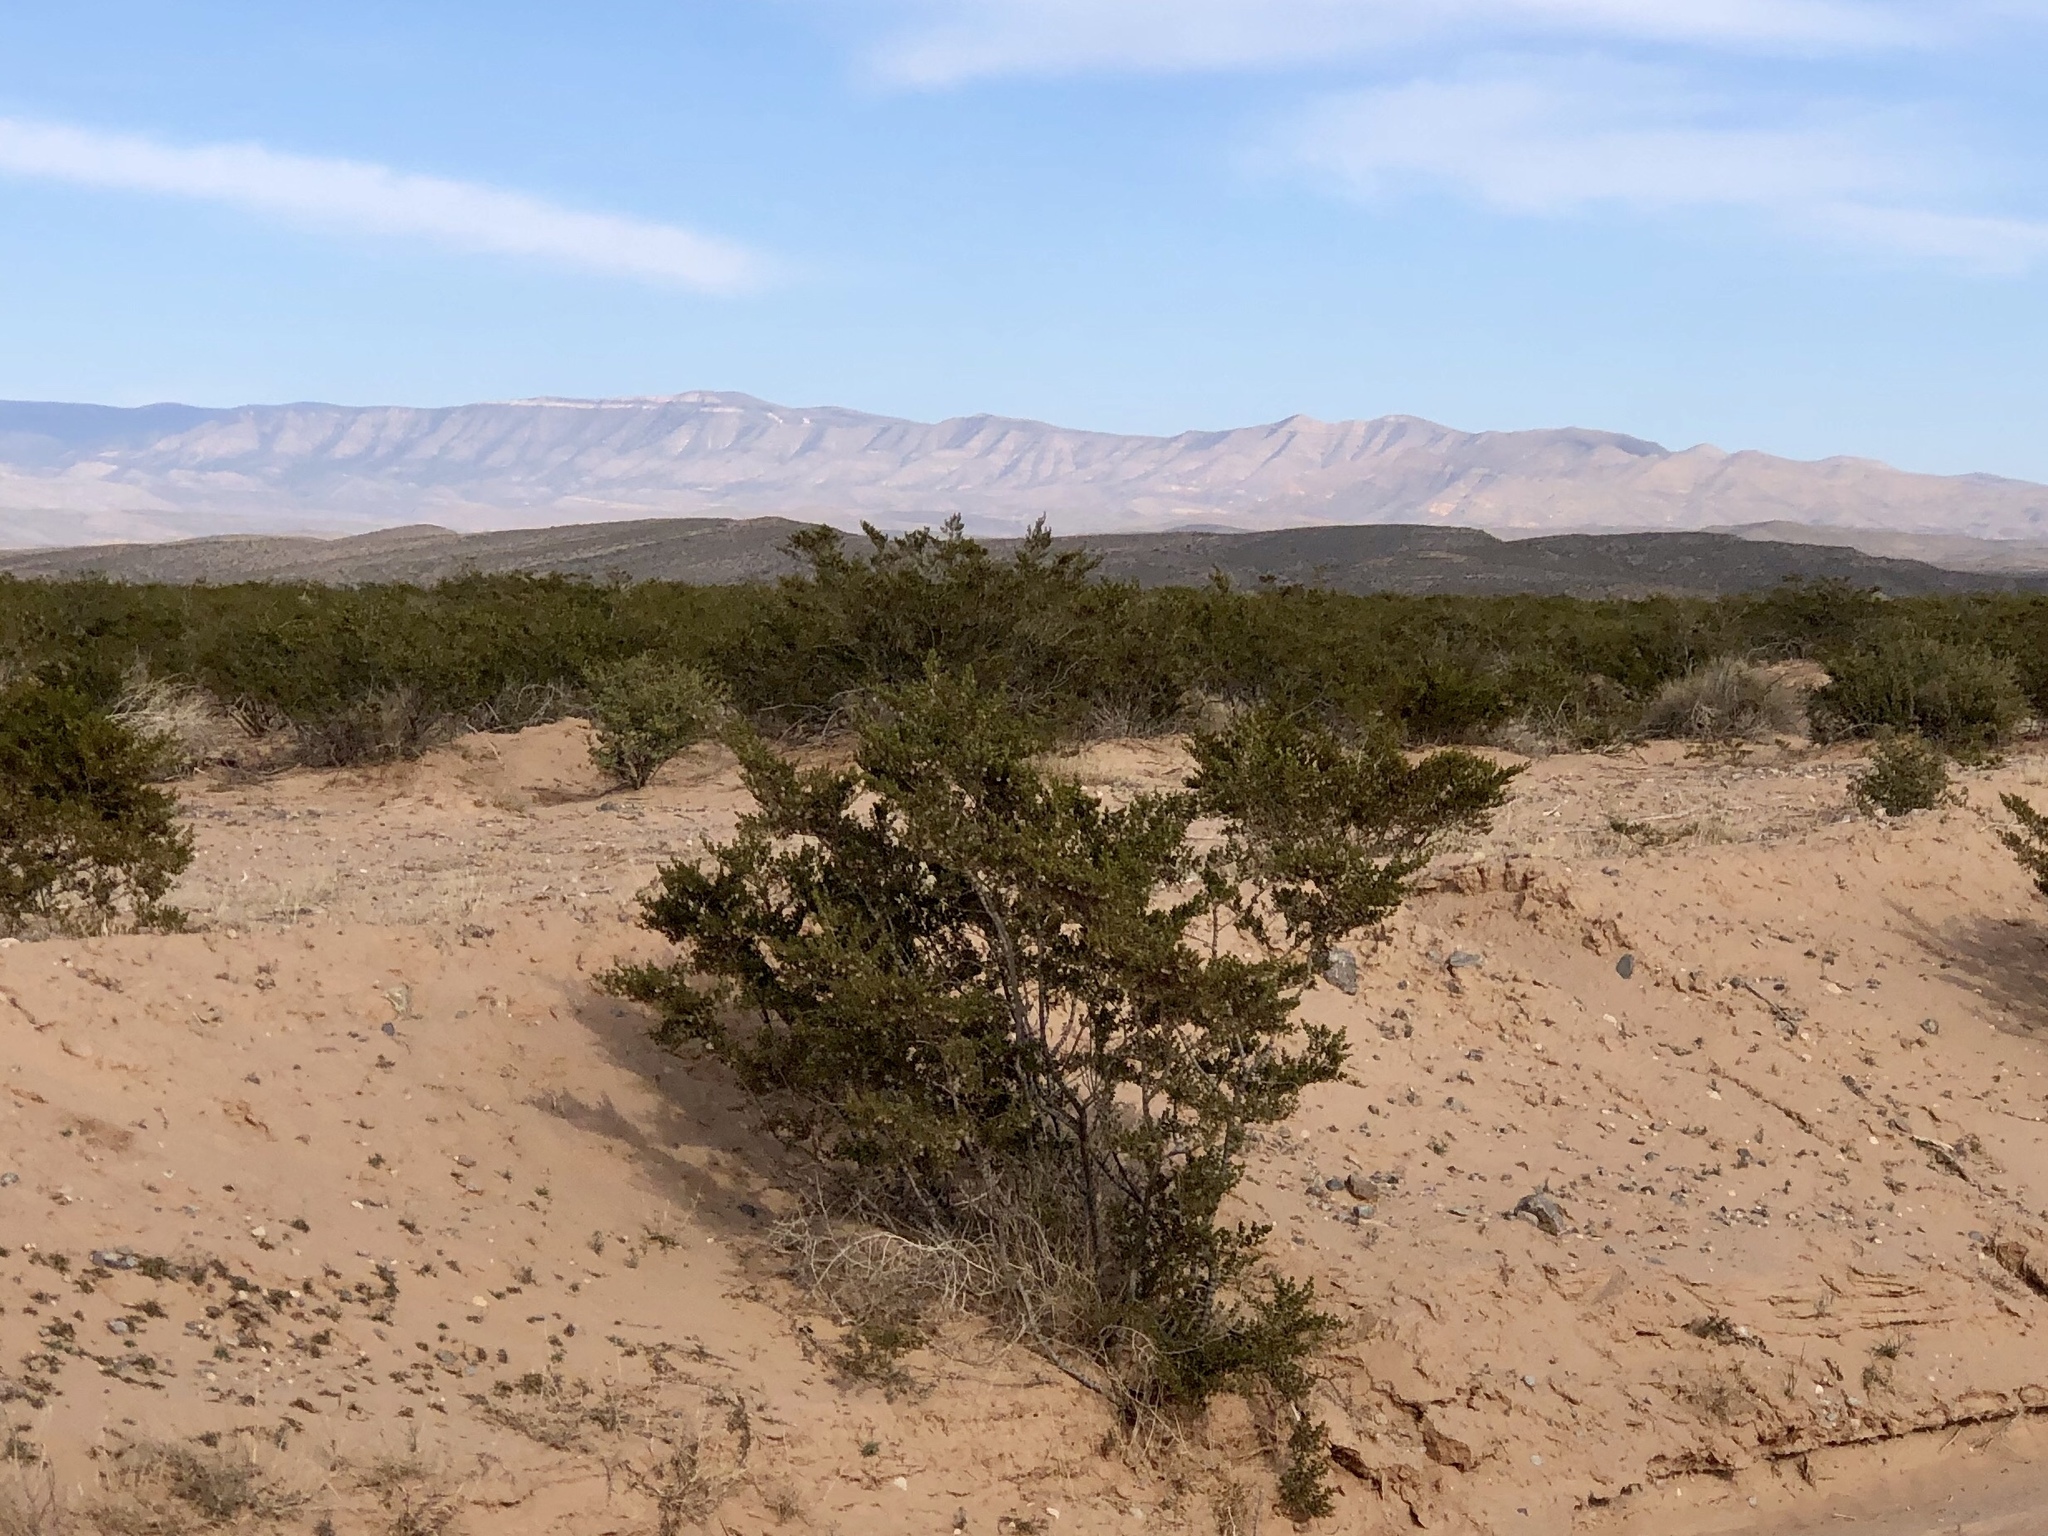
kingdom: Plantae
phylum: Tracheophyta
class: Magnoliopsida
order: Zygophyllales
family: Zygophyllaceae
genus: Larrea
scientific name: Larrea tridentata
